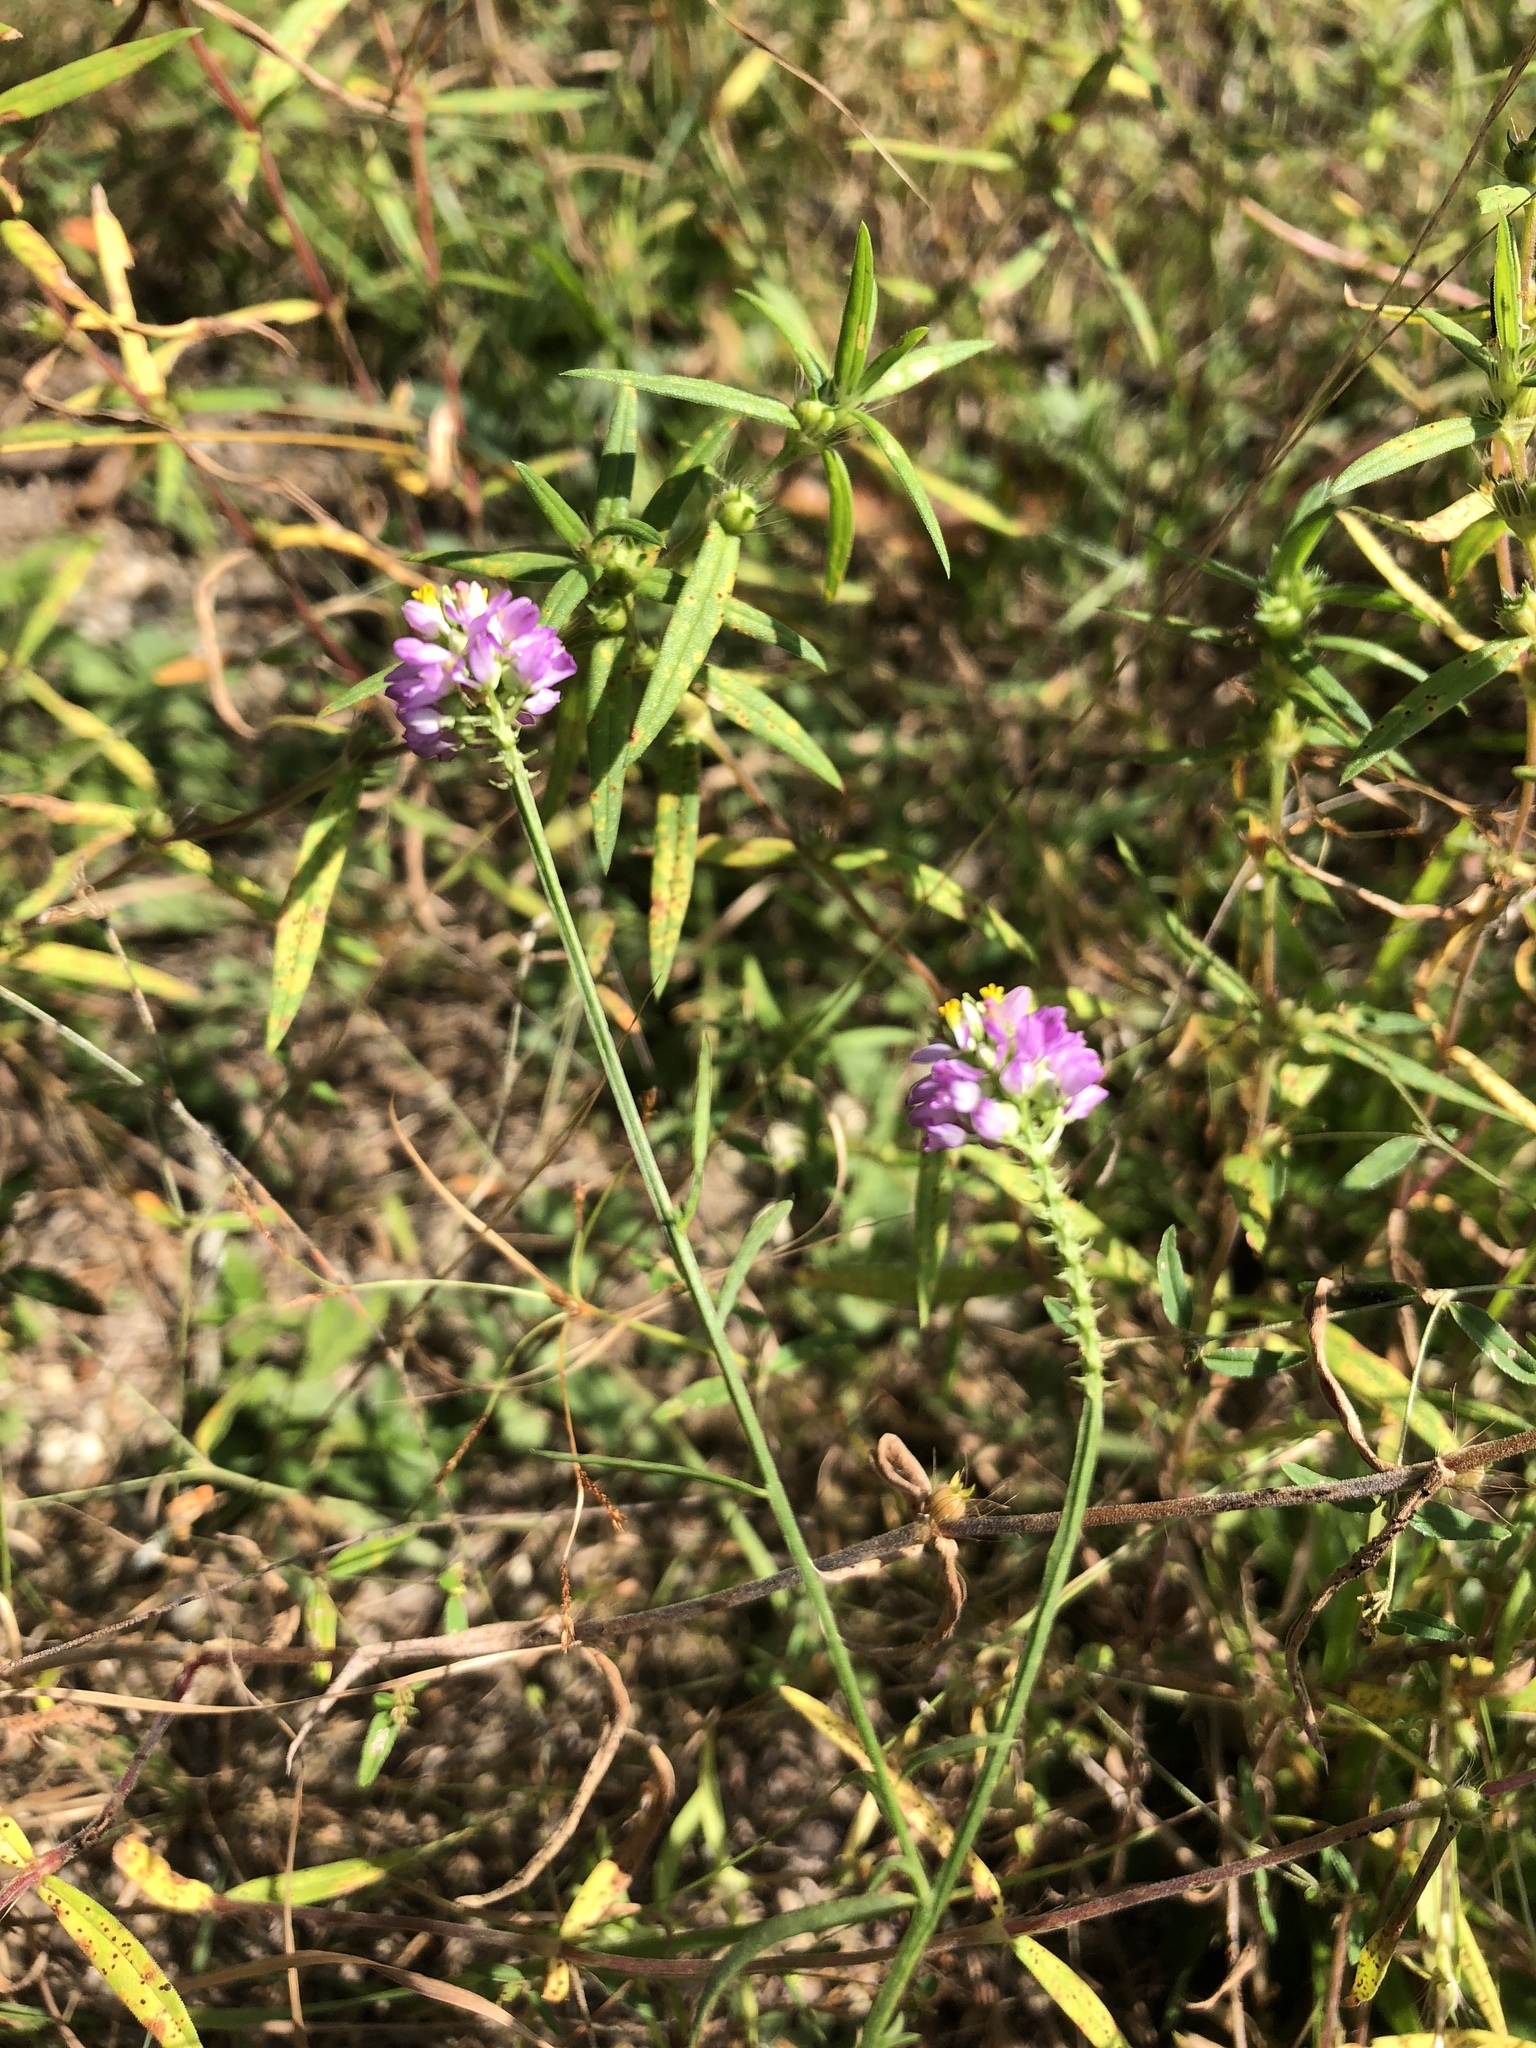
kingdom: Plantae
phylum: Tracheophyta
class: Magnoliopsida
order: Fabales
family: Polygalaceae
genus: Polygala
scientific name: Polygala curtissii
